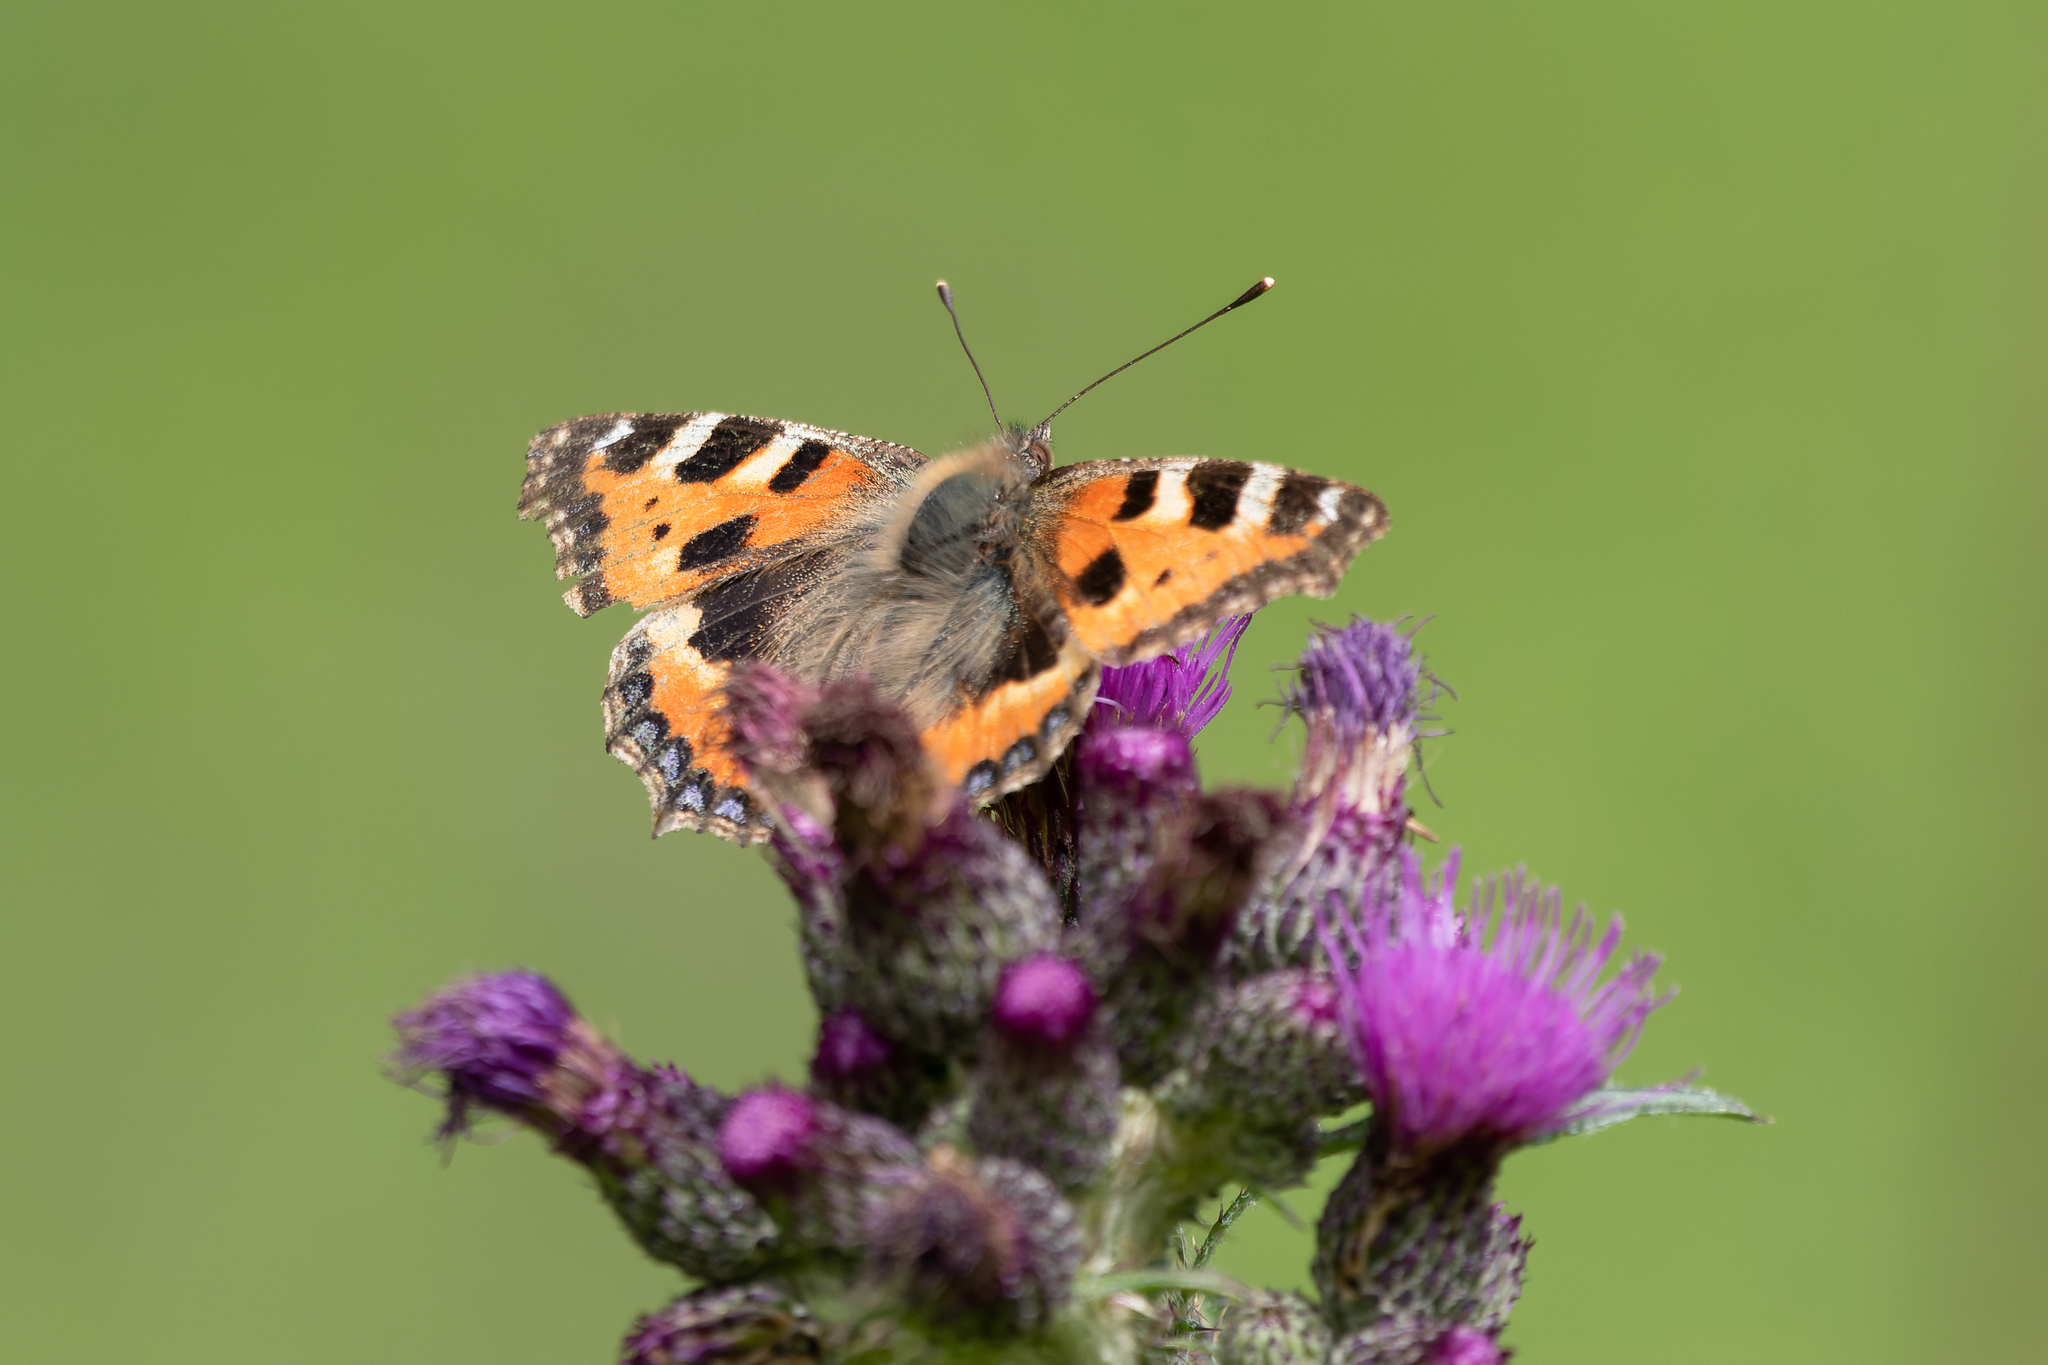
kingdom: Animalia
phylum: Arthropoda
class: Insecta
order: Lepidoptera
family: Nymphalidae
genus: Aglais
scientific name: Aglais urticae
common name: Small tortoiseshell
